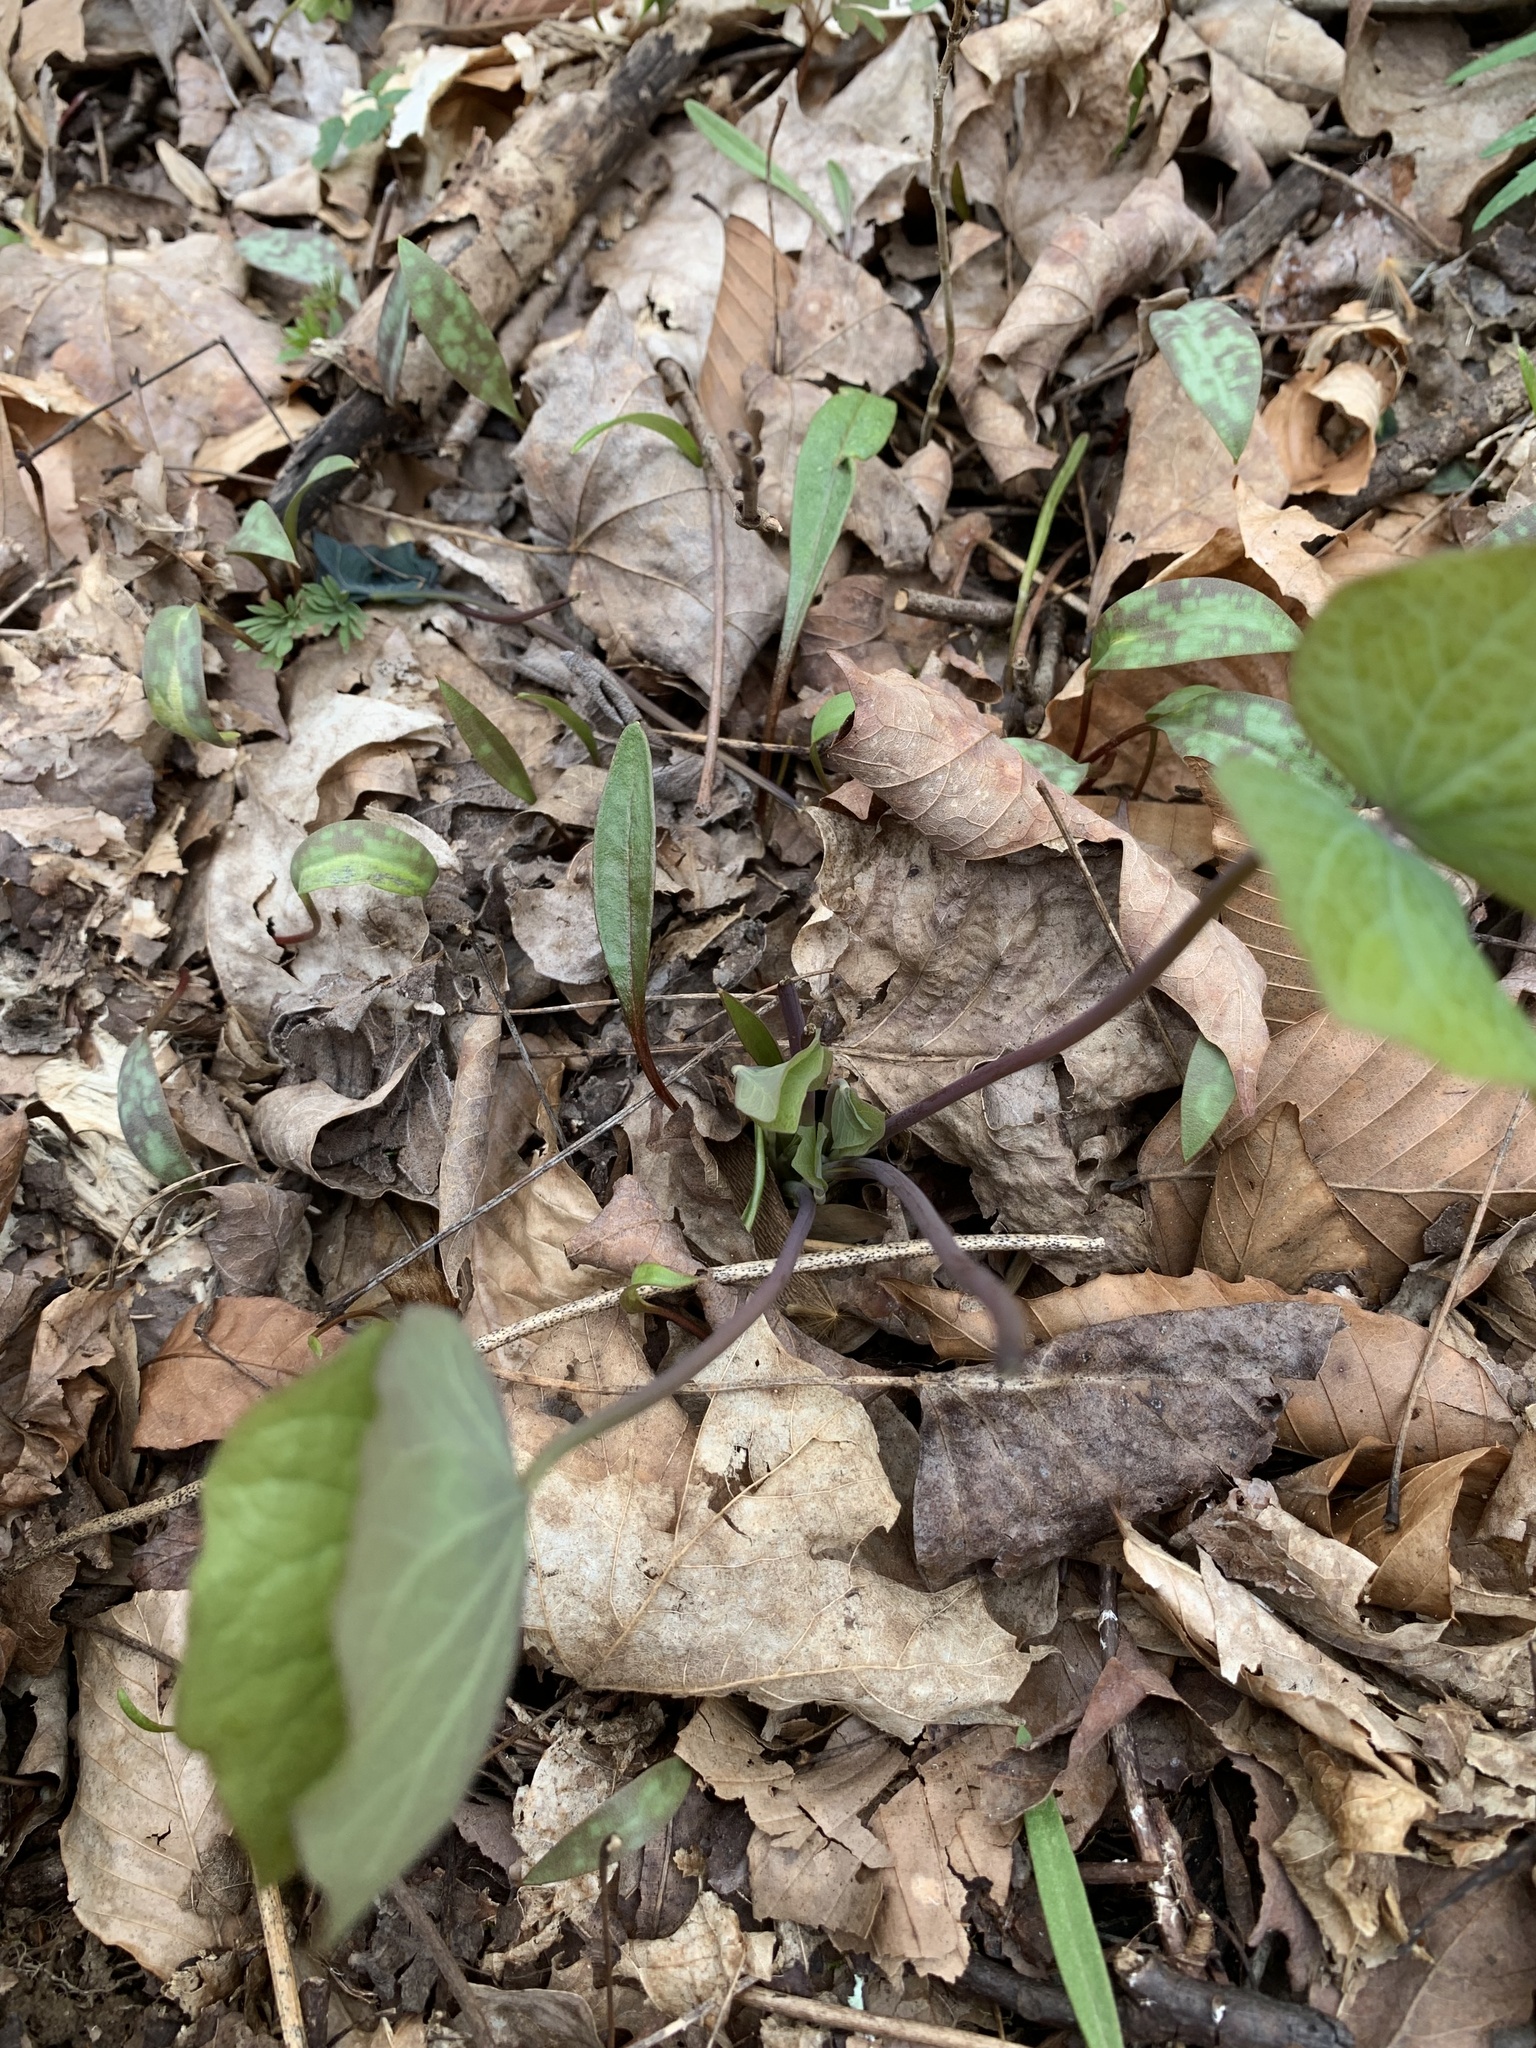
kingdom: Plantae
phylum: Tracheophyta
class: Magnoliopsida
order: Ranunculales
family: Berberidaceae
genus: Jeffersonia
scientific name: Jeffersonia diphylla
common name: Rheumatism-root
